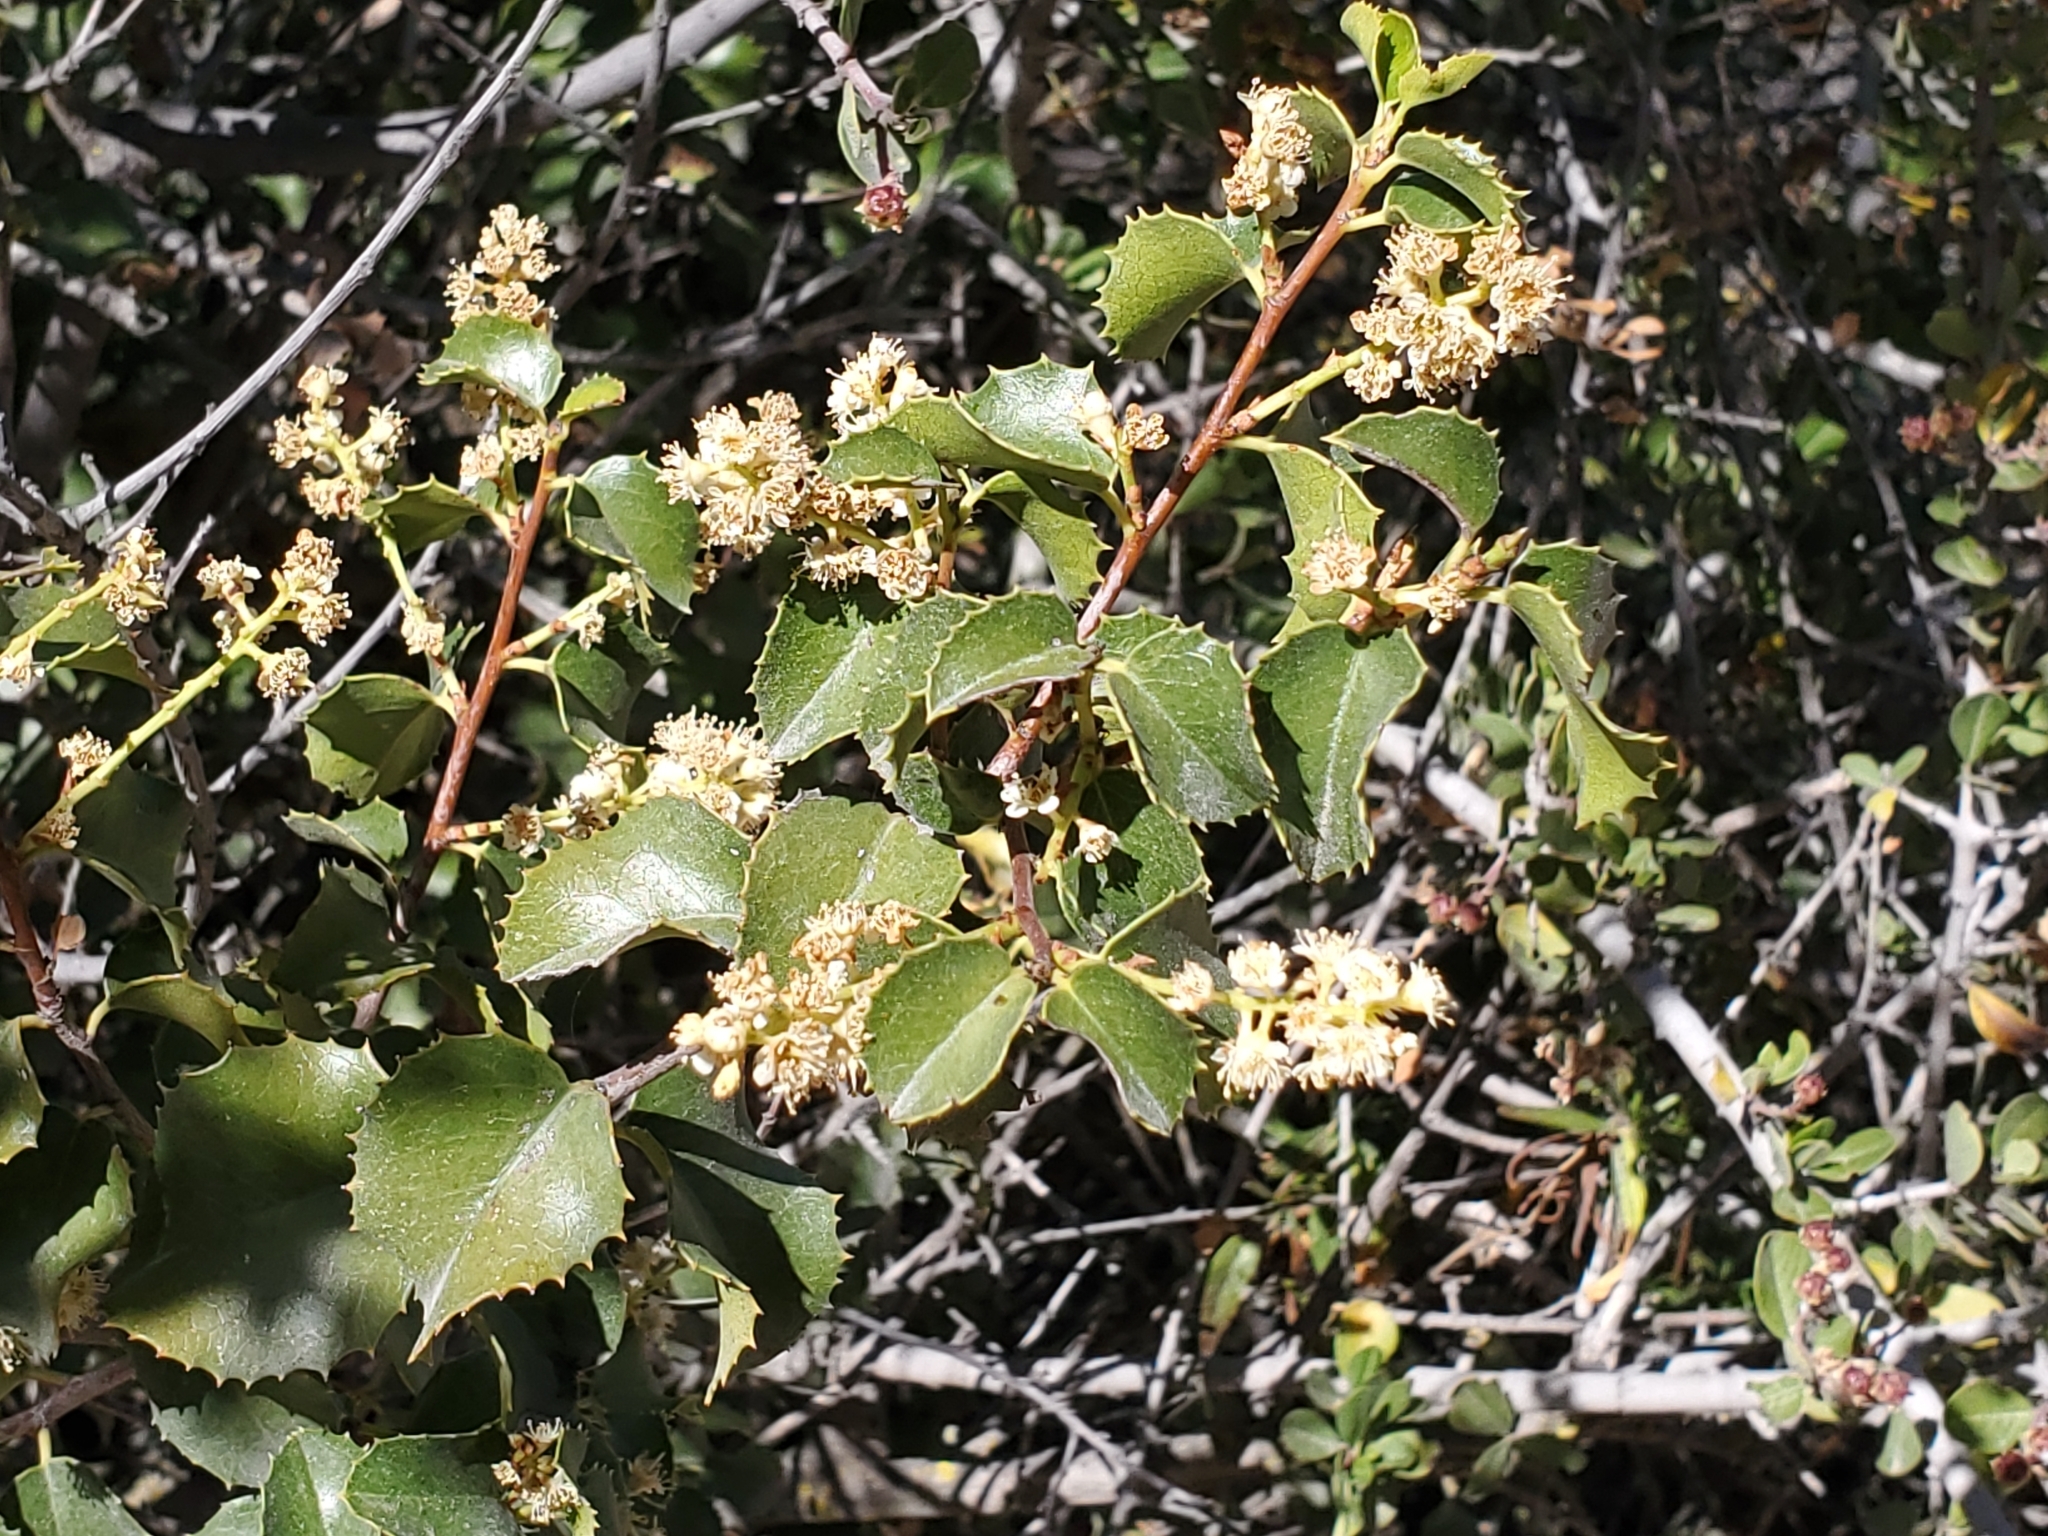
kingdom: Plantae
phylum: Tracheophyta
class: Magnoliopsida
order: Rosales
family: Rosaceae
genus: Prunus
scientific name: Prunus ilicifolia
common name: Hollyleaf cherry
